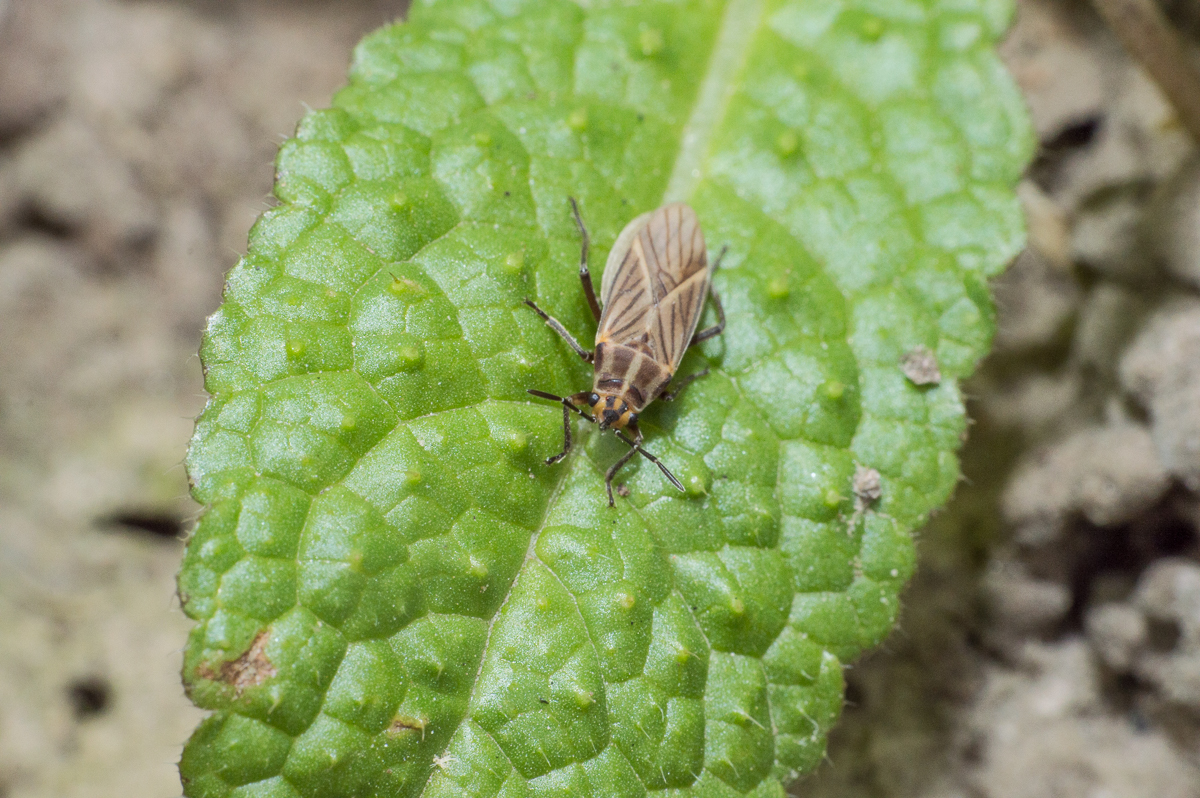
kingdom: Animalia
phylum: Arthropoda
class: Insecta
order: Hemiptera
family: Lygaeidae
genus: Torvochrimnus
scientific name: Torvochrimnus poeyi
